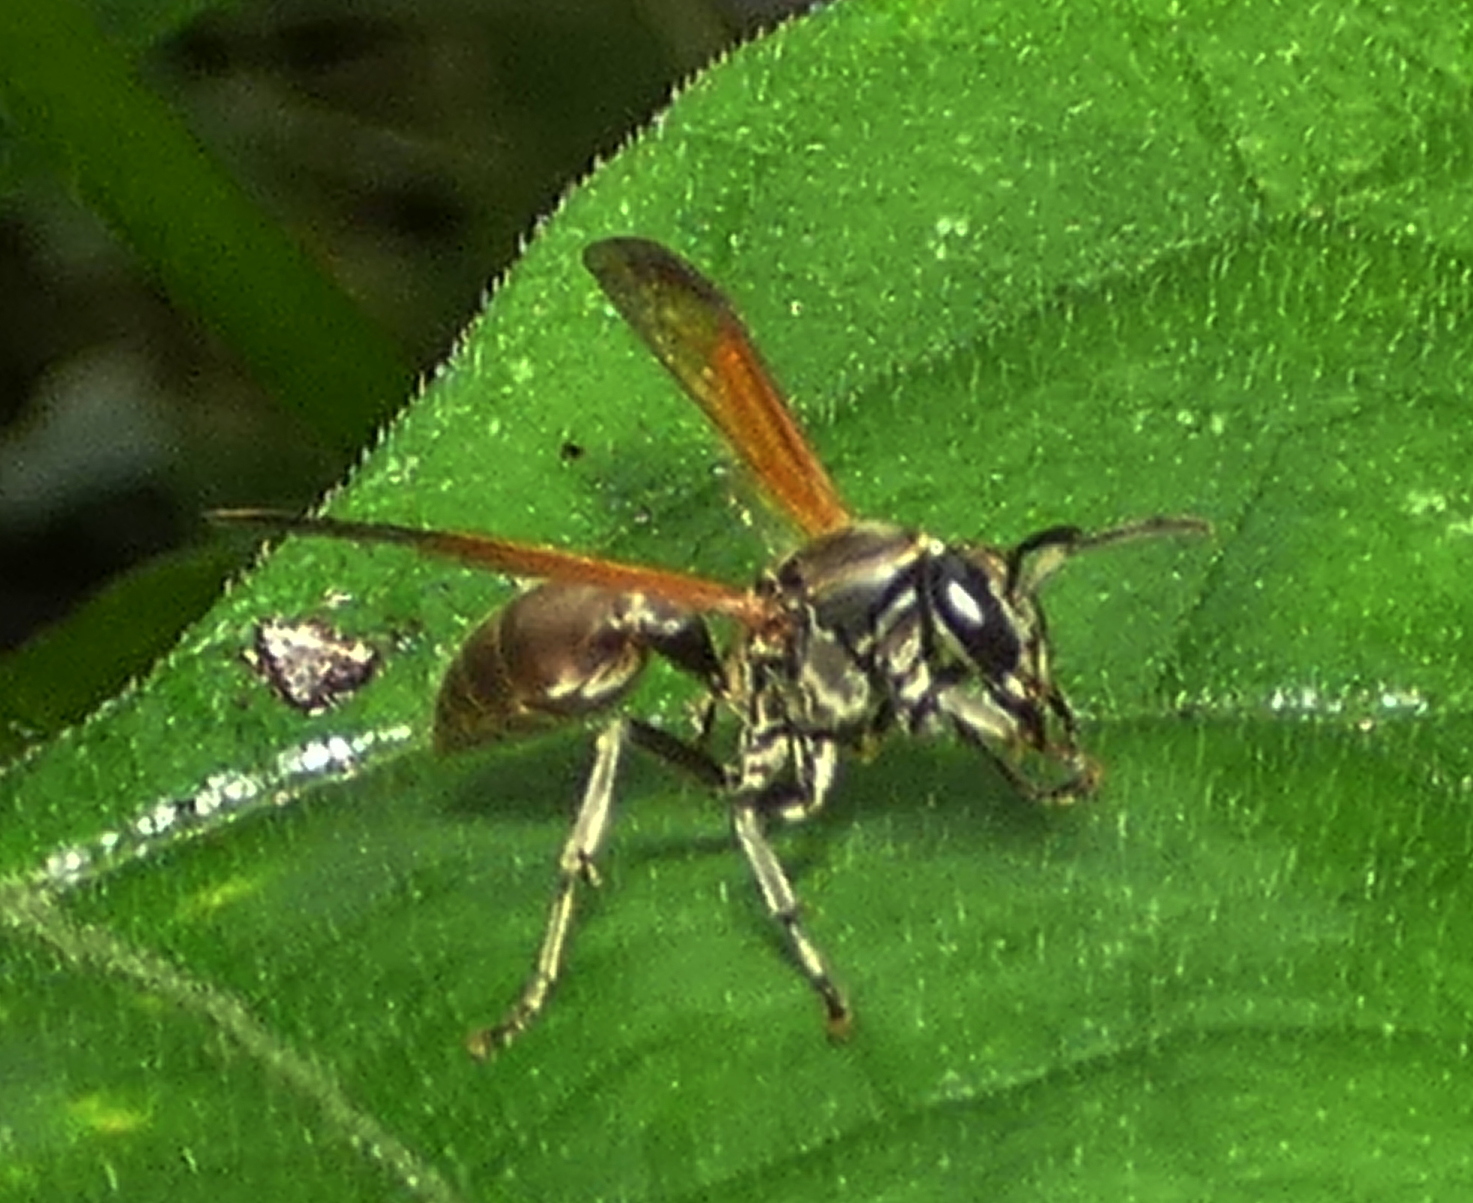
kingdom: Animalia
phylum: Arthropoda
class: Insecta
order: Hymenoptera
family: Eumenidae
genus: Polybia
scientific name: Polybia rejecta
